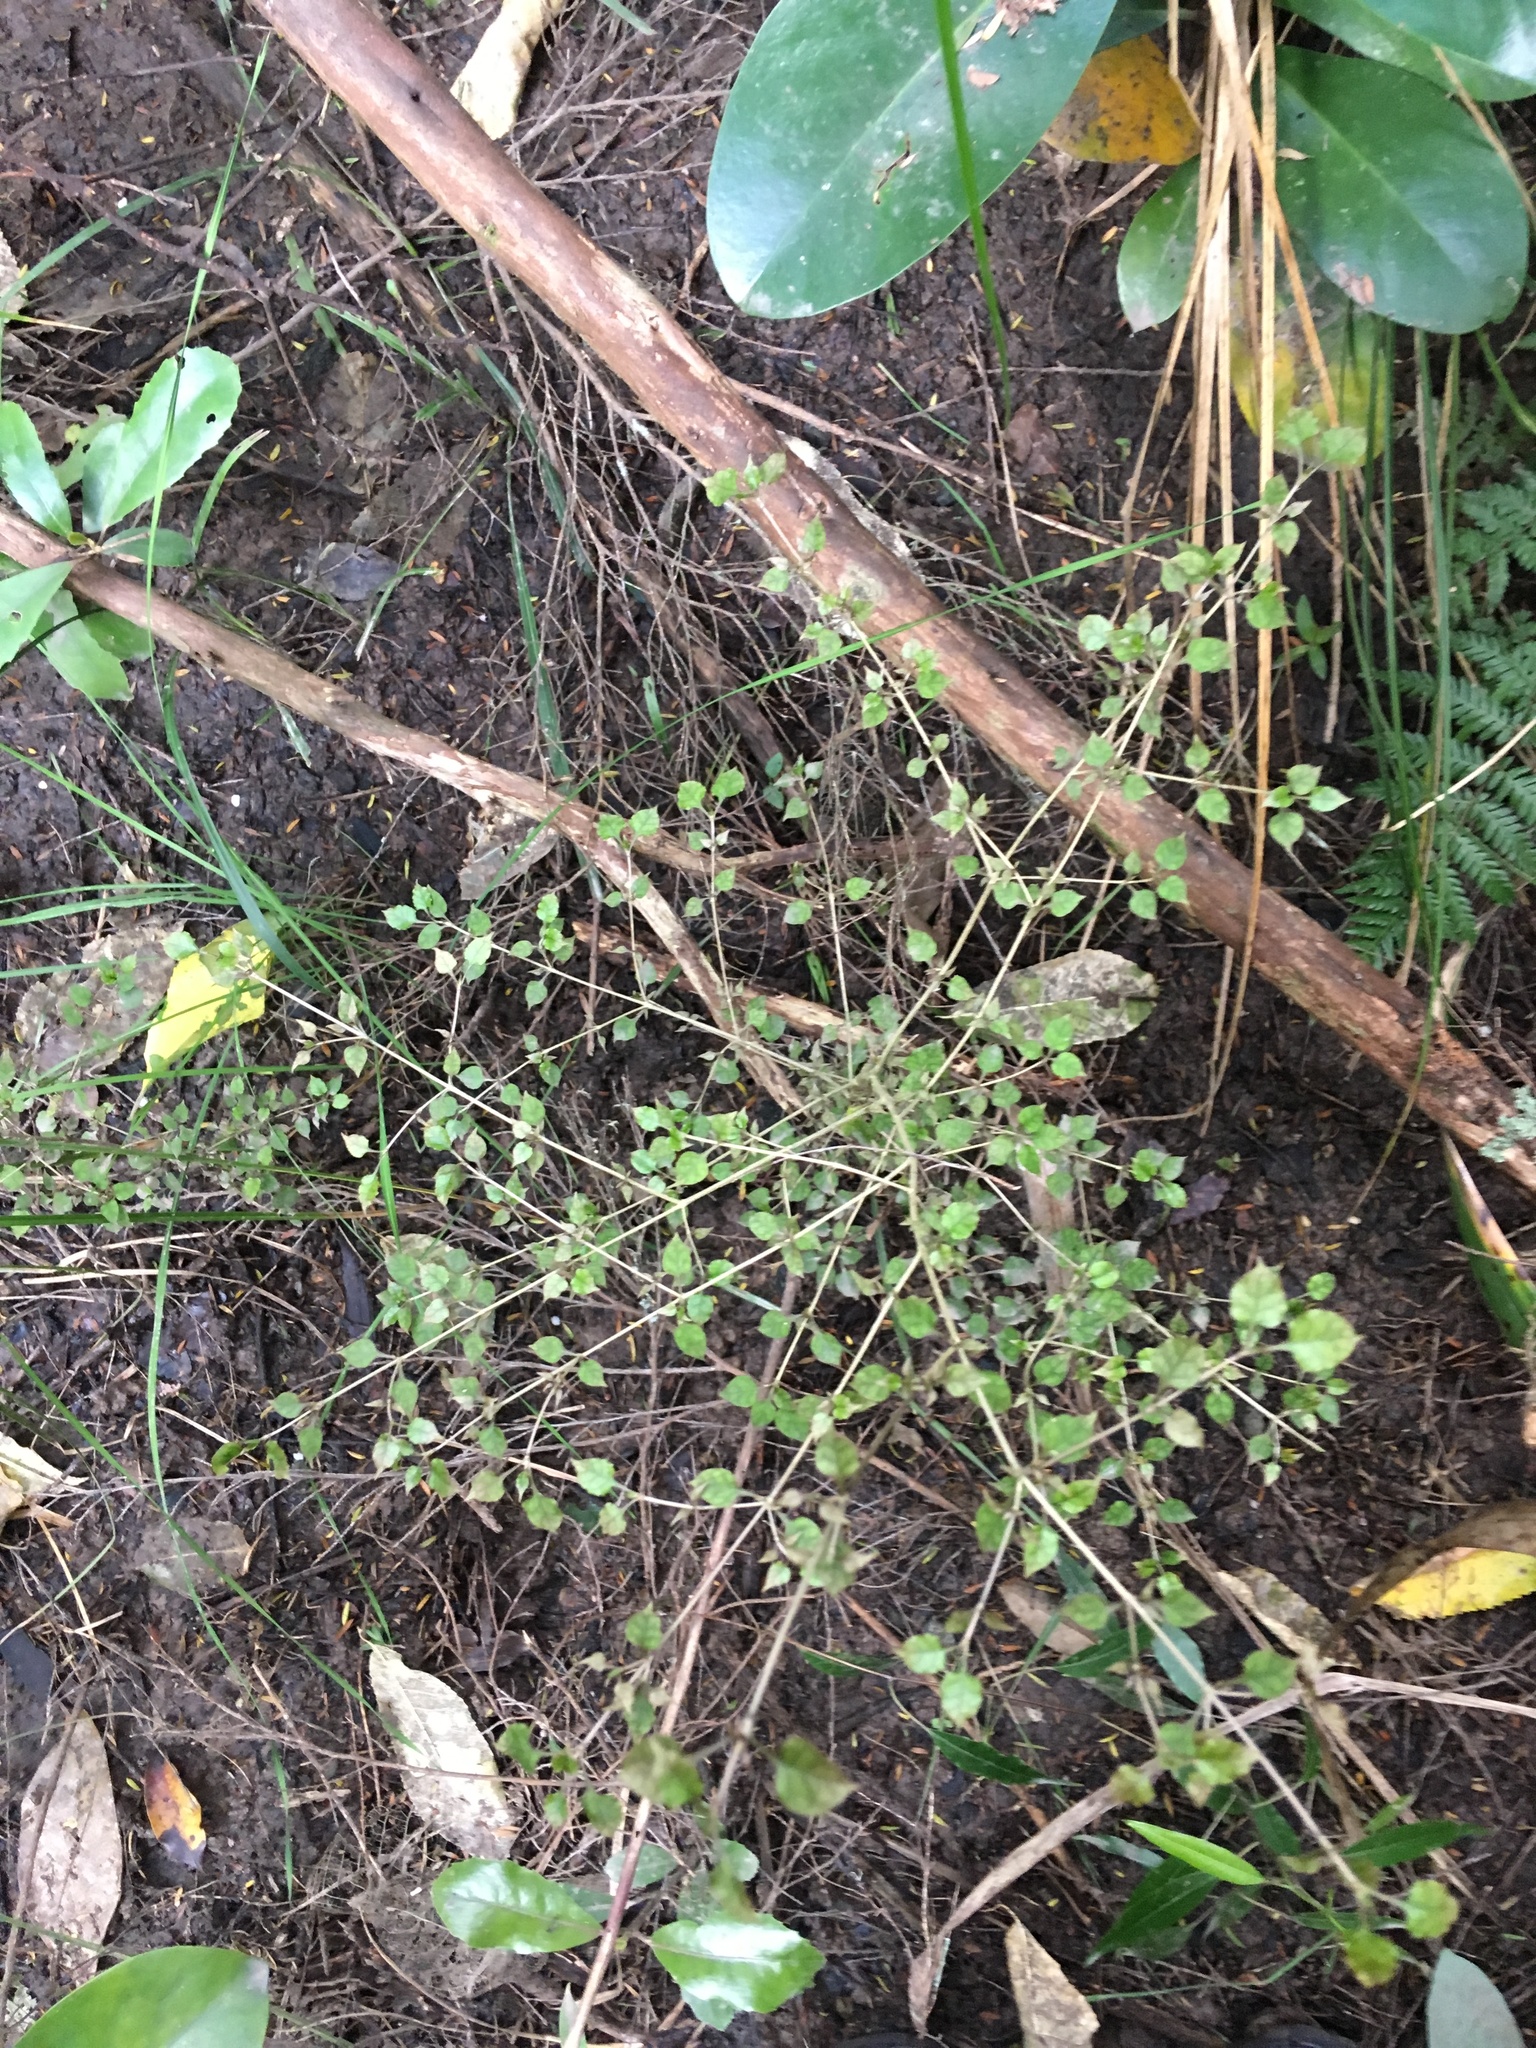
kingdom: Plantae
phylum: Tracheophyta
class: Magnoliopsida
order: Gentianales
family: Rubiaceae
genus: Coprosma
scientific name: Coprosma areolata
